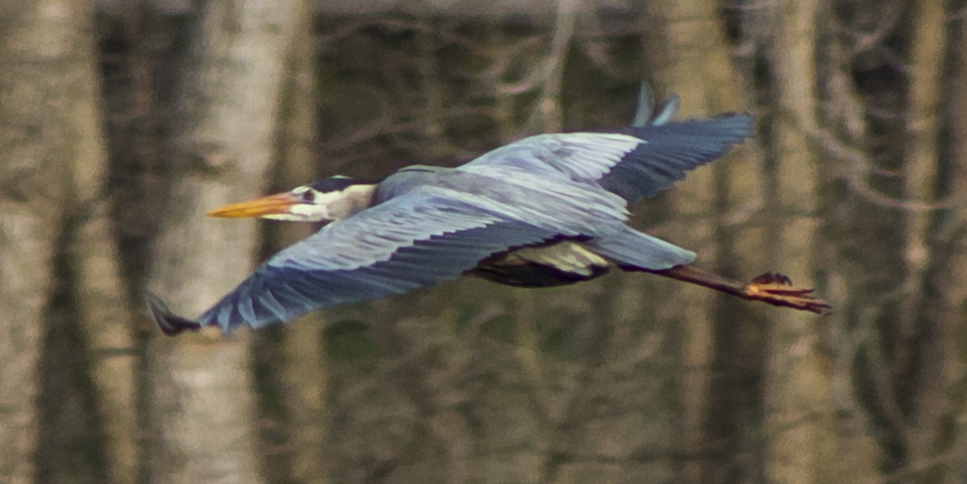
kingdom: Animalia
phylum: Chordata
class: Aves
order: Pelecaniformes
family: Ardeidae
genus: Ardea
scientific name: Ardea herodias
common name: Great blue heron
